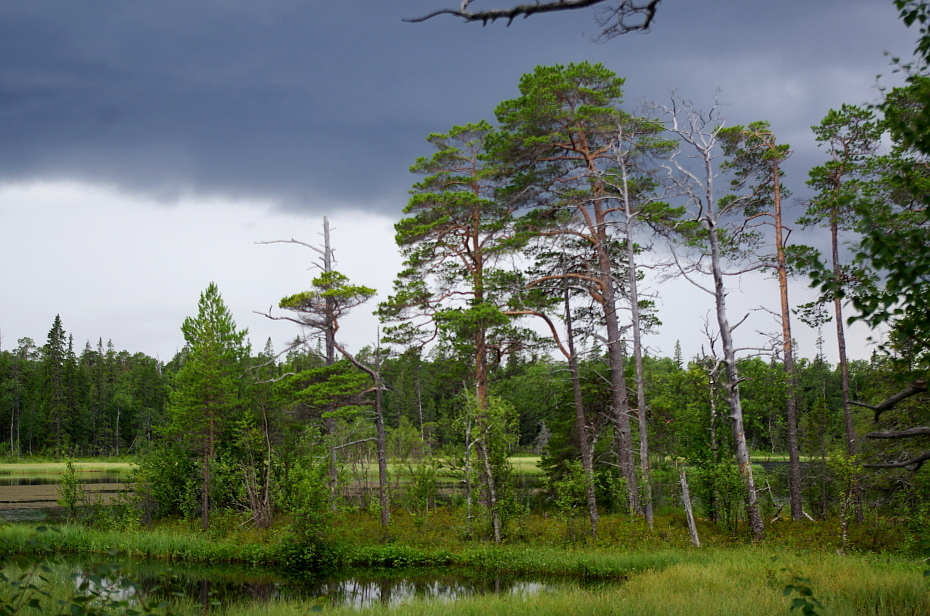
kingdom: Plantae
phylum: Tracheophyta
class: Pinopsida
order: Pinales
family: Pinaceae
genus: Pinus
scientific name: Pinus sylvestris
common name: Scots pine
